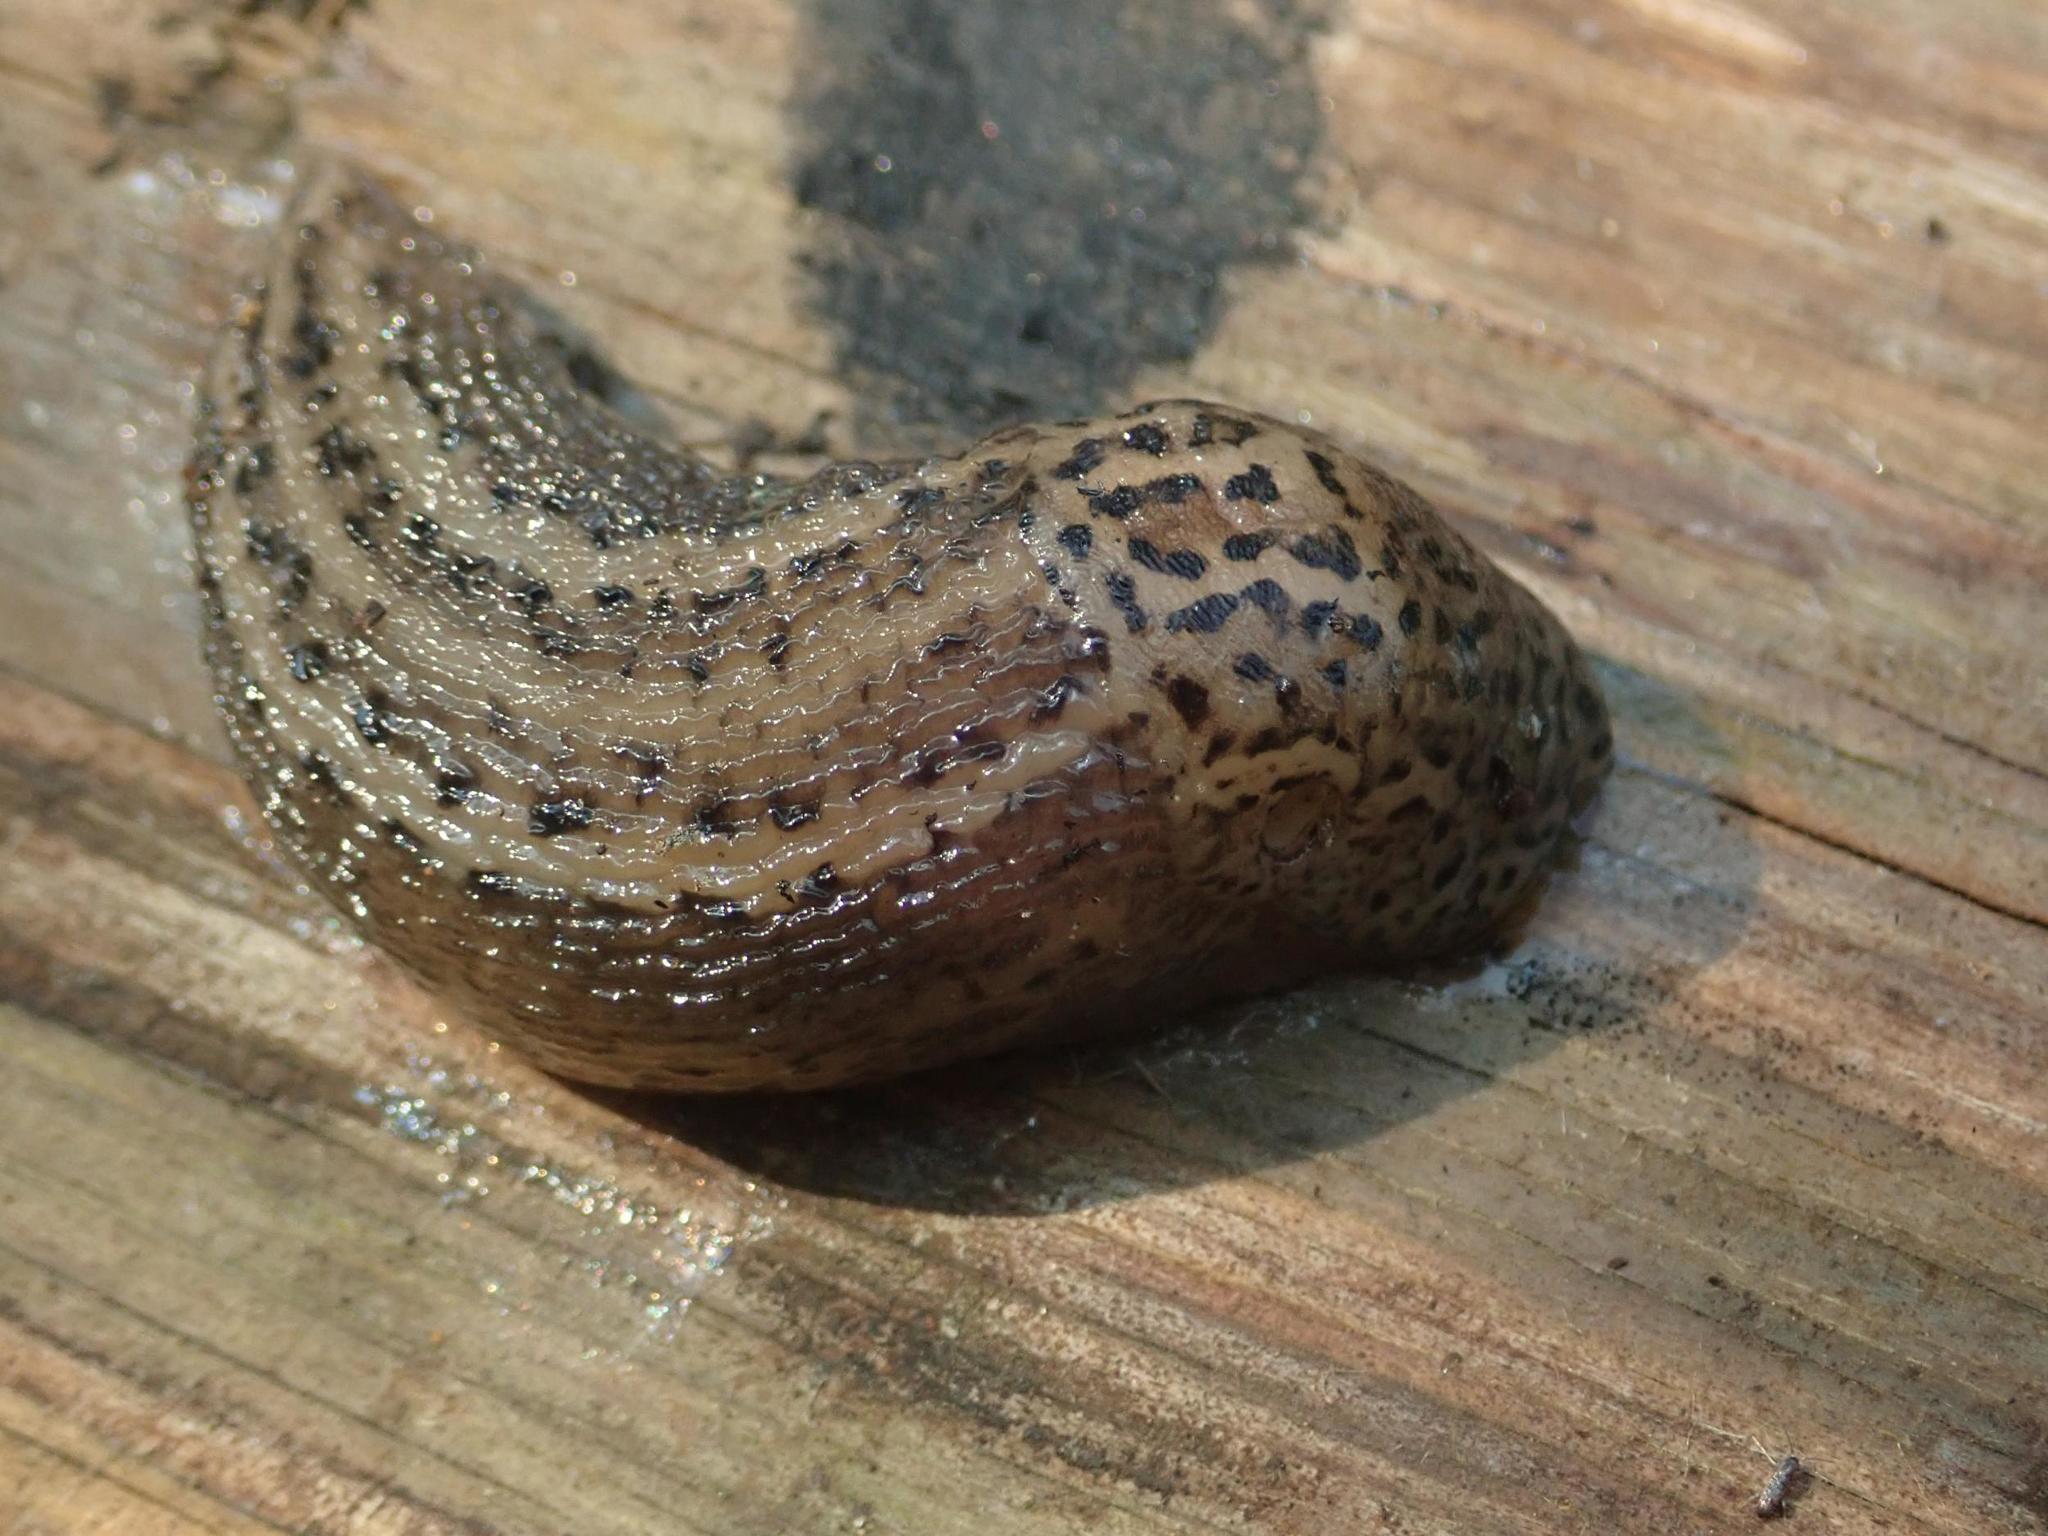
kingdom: Animalia
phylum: Mollusca
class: Gastropoda
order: Stylommatophora
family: Limacidae
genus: Limax
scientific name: Limax maximus
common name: Great grey slug
